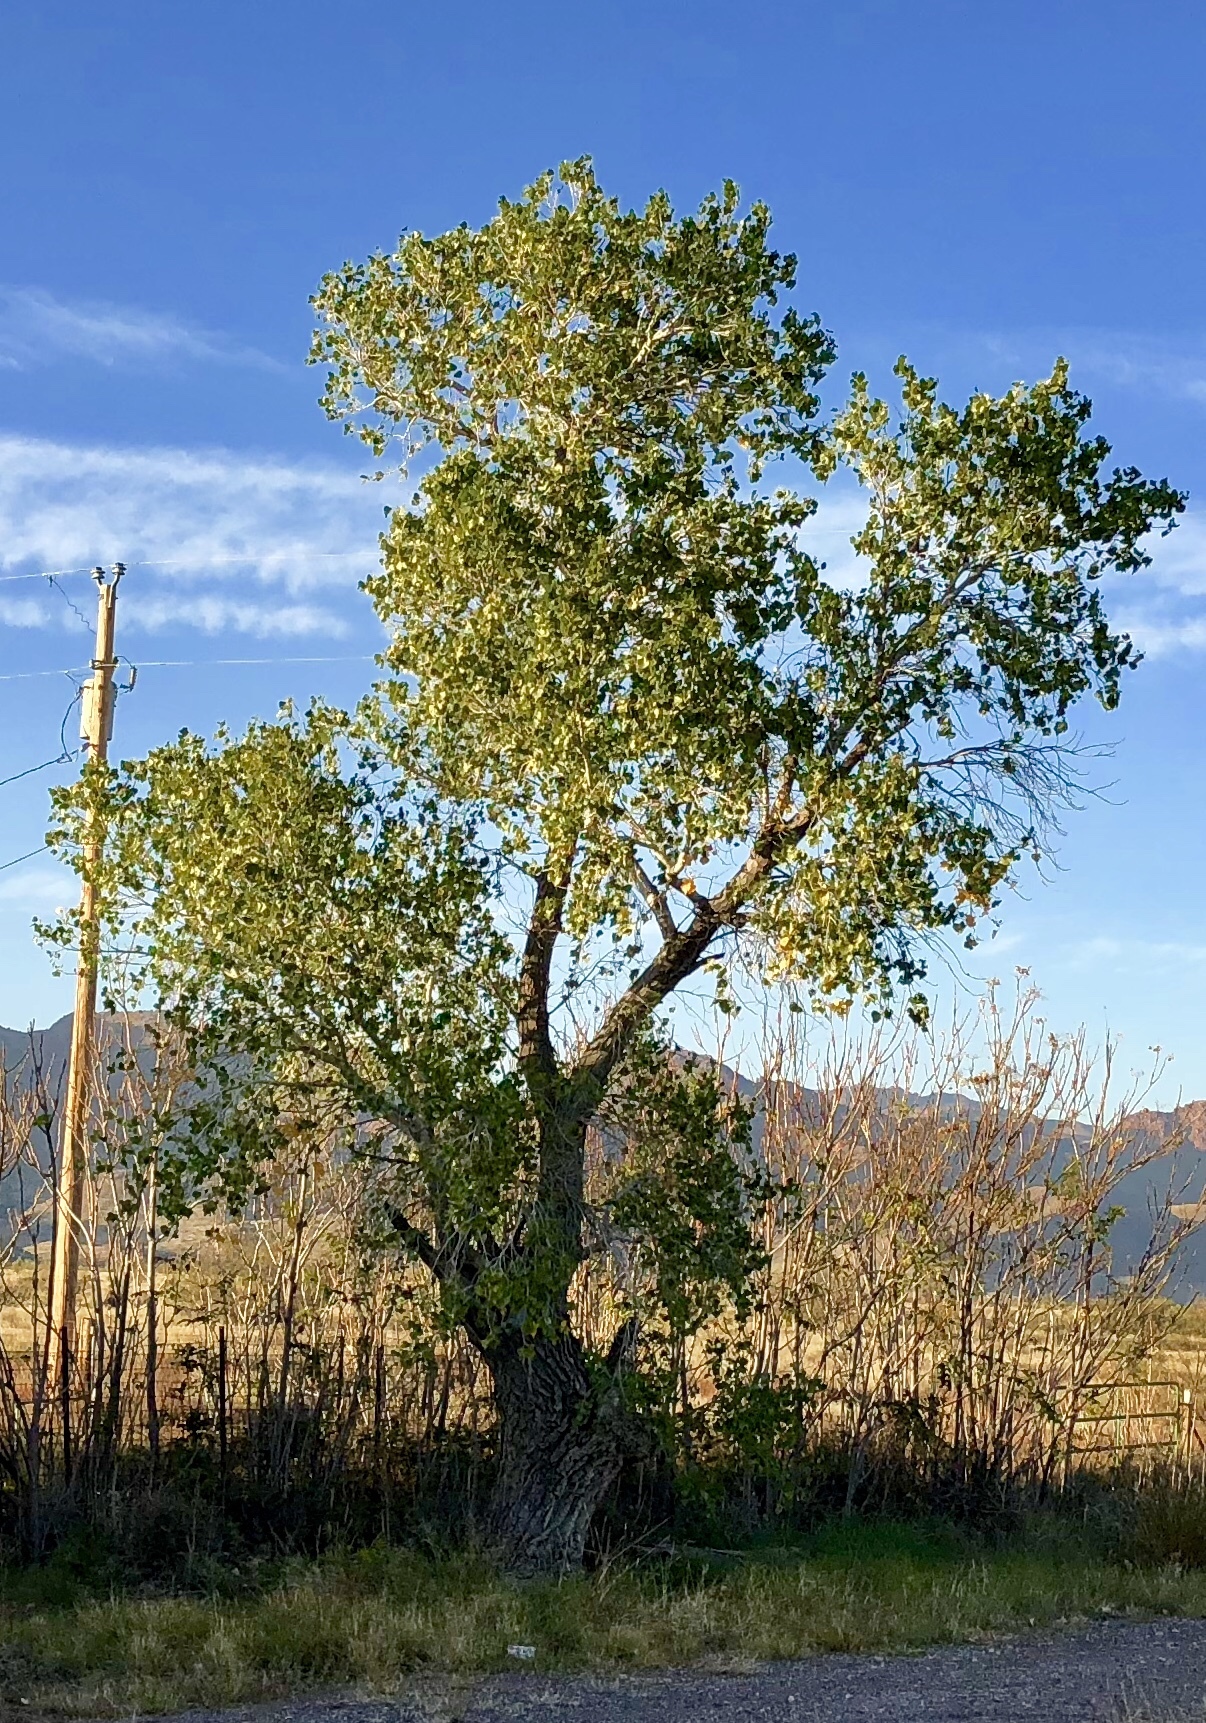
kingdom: Plantae
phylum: Tracheophyta
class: Magnoliopsida
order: Malpighiales
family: Salicaceae
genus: Populus
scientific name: Populus fremontii
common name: Fremont's cottonwood
